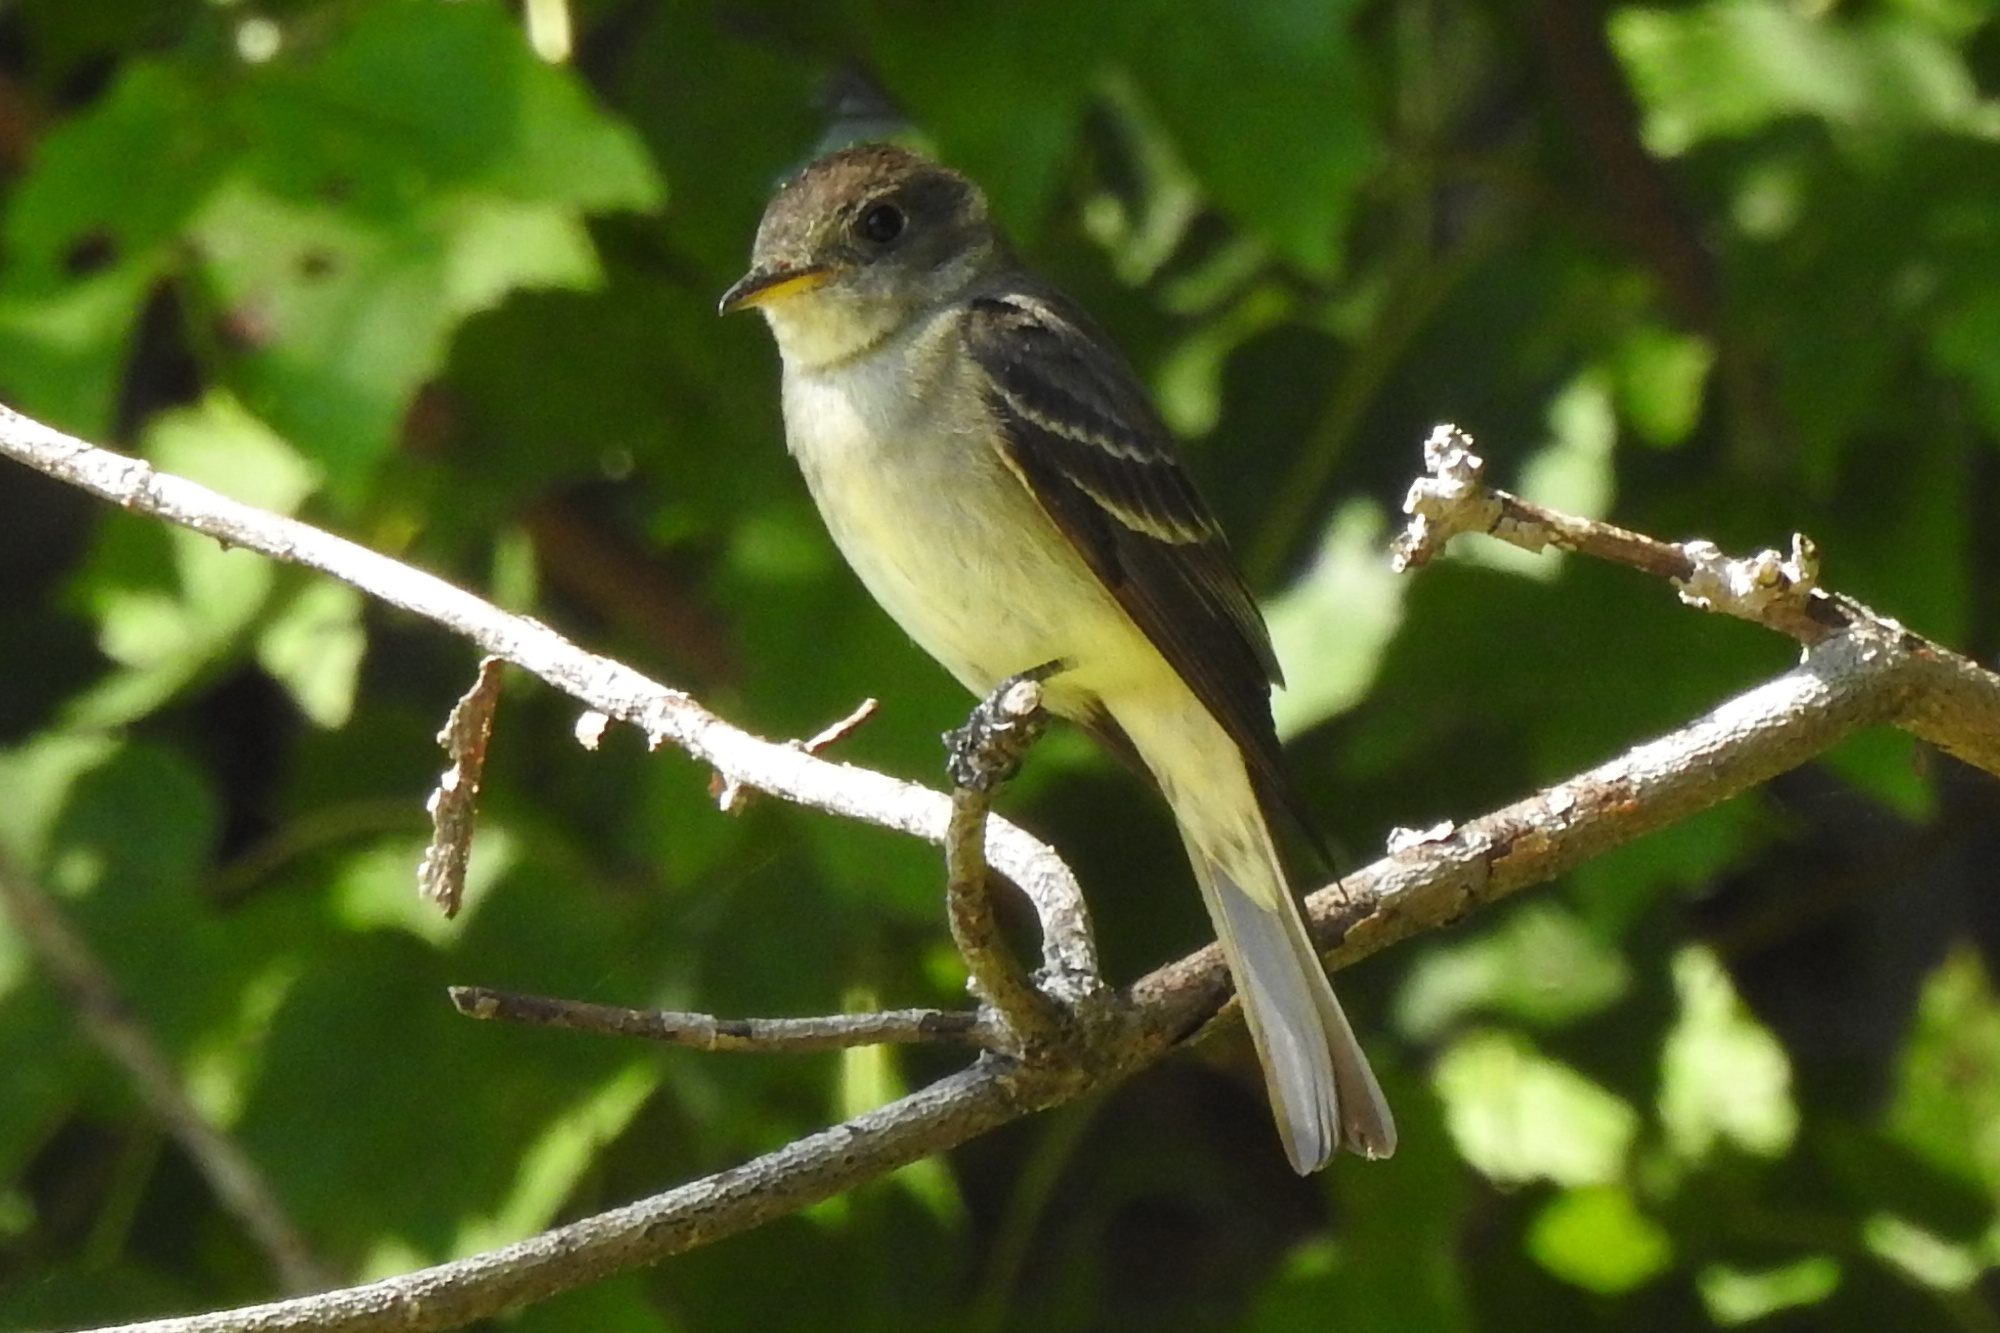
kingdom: Animalia
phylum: Chordata
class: Aves
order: Passeriformes
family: Tyrannidae
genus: Contopus
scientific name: Contopus virens
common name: Eastern wood-pewee
